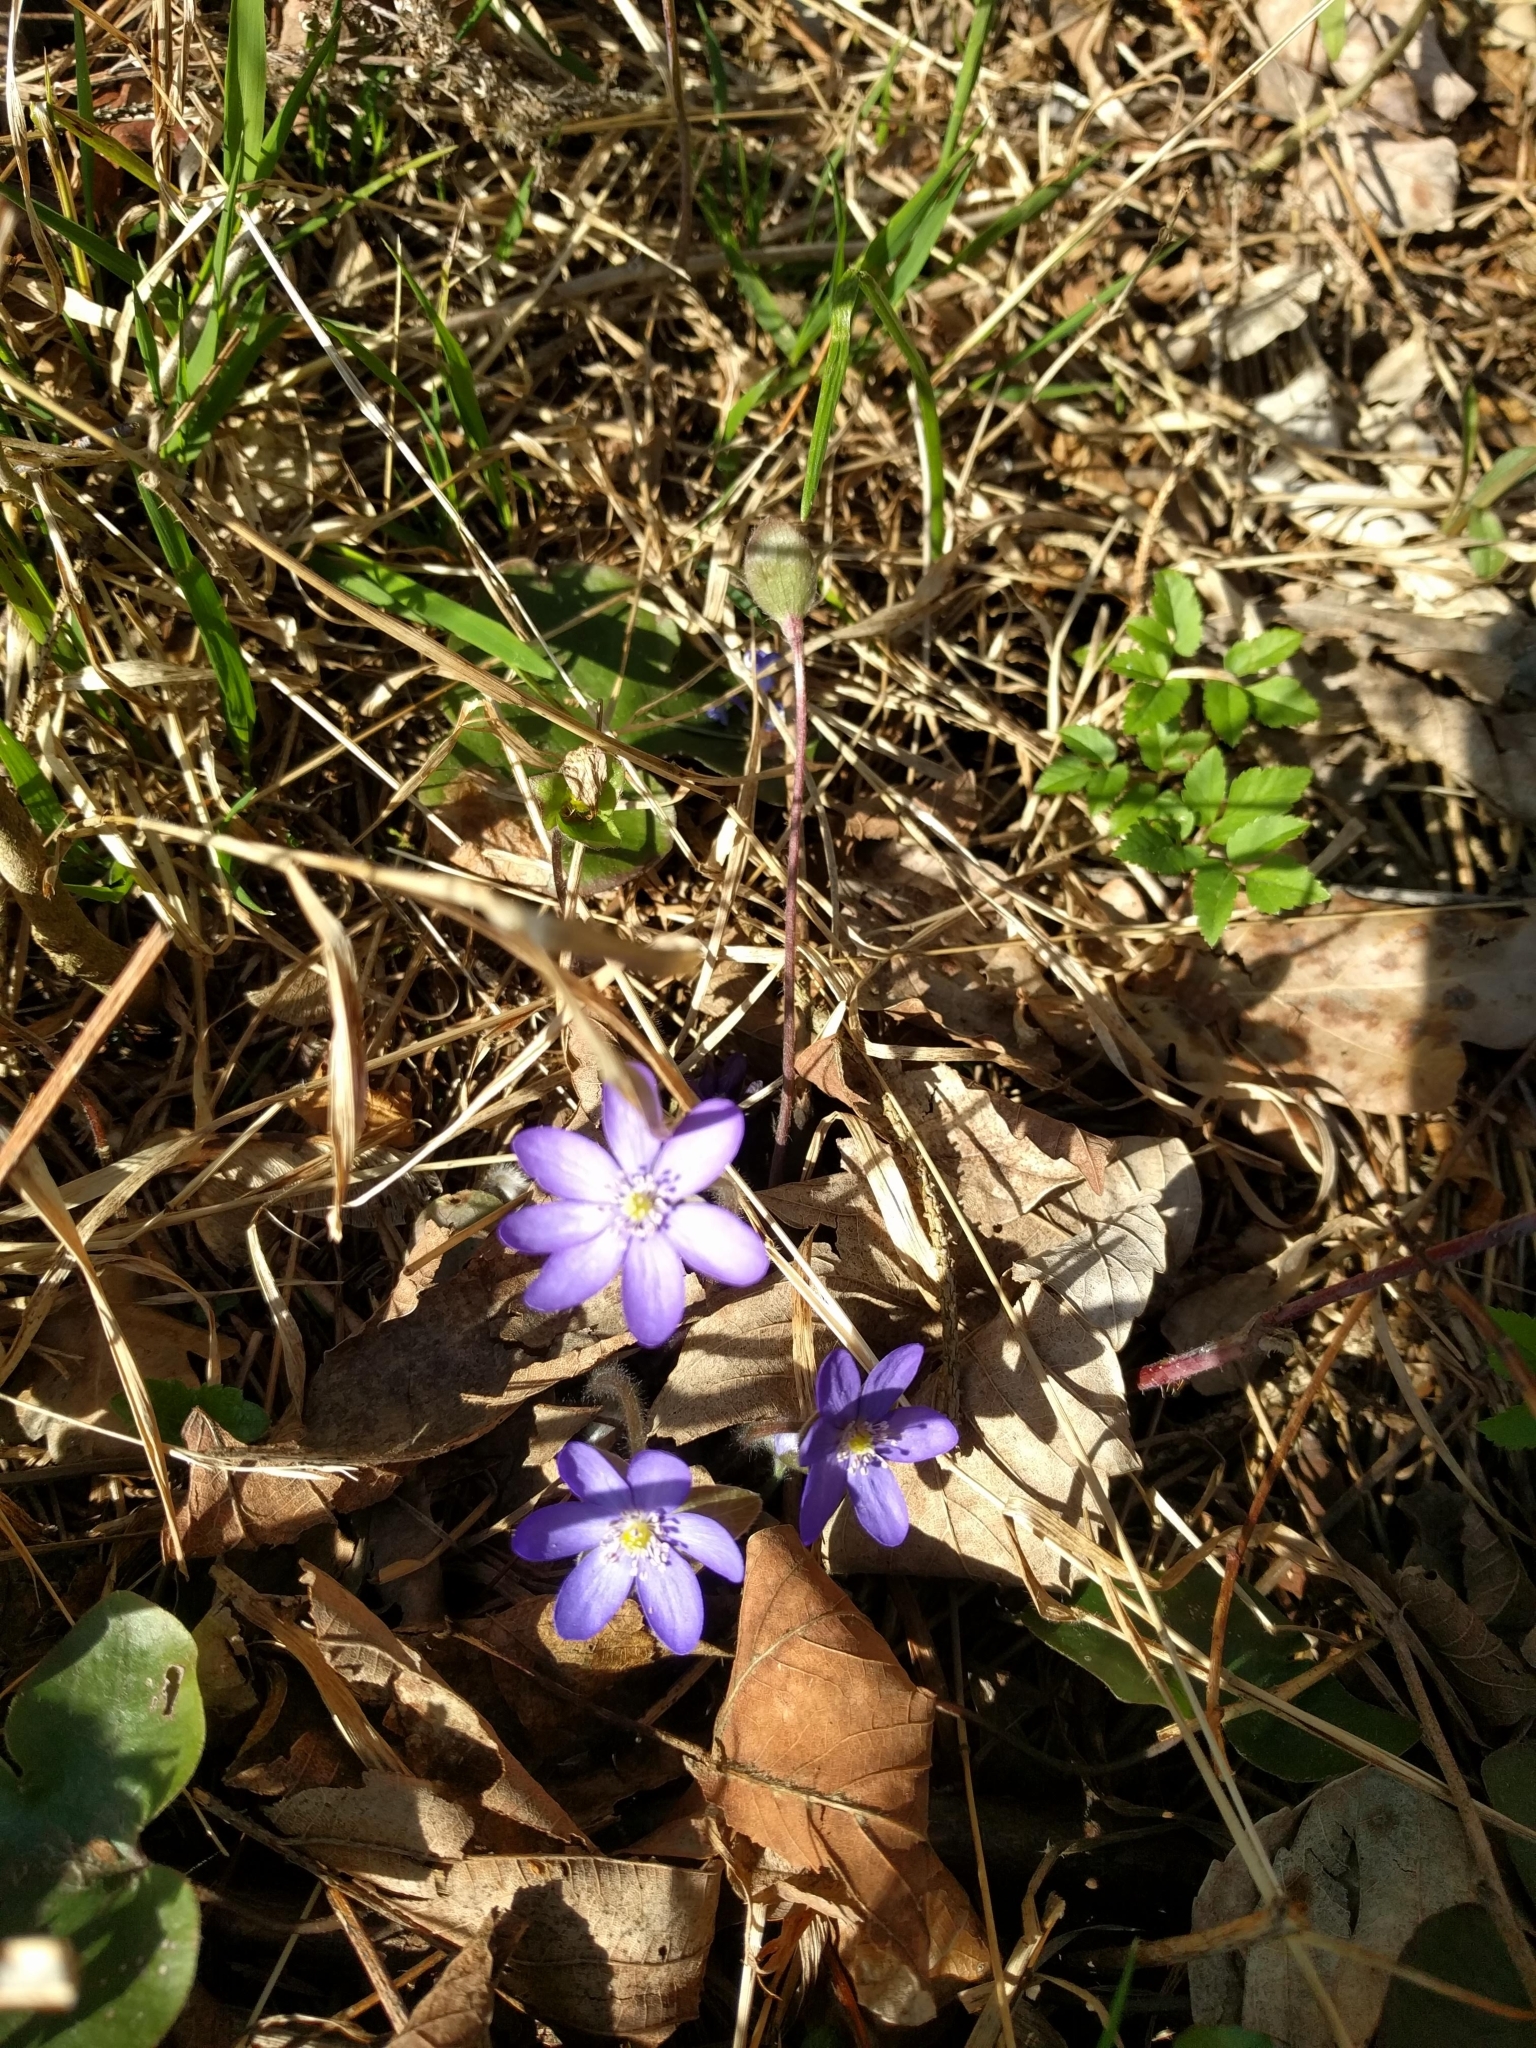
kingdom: Plantae
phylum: Tracheophyta
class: Magnoliopsida
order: Ranunculales
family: Ranunculaceae
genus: Hepatica
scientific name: Hepatica nobilis
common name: Liverleaf
